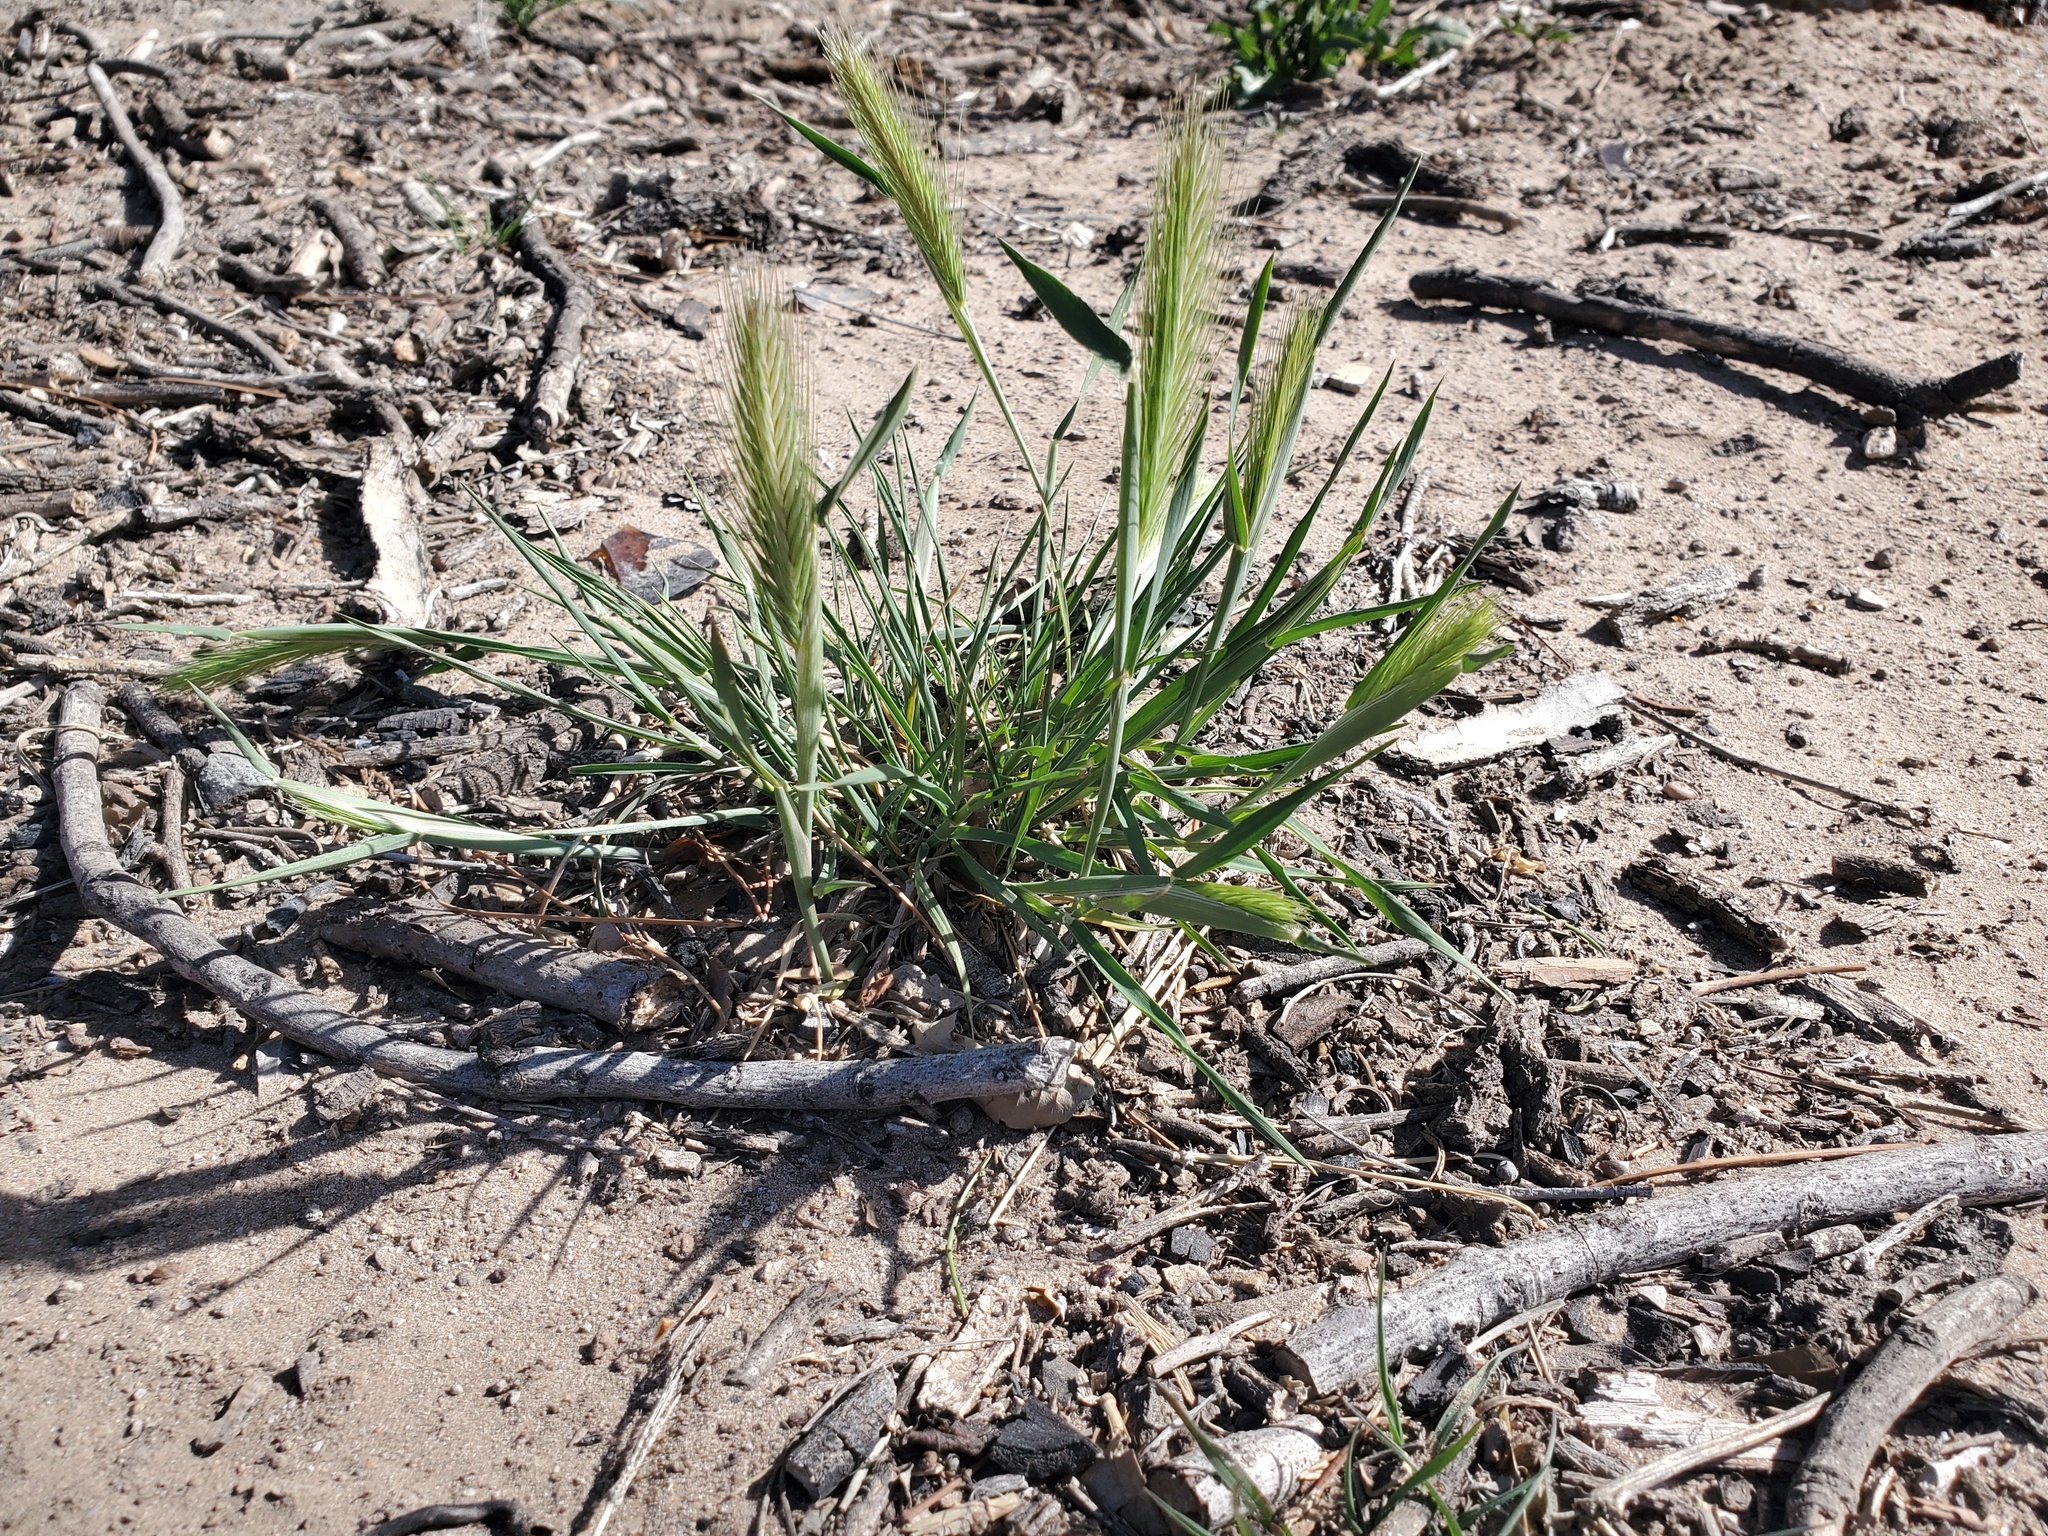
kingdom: Plantae
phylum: Tracheophyta
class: Liliopsida
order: Poales
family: Poaceae
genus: Hordeum
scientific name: Hordeum murinum
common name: Wall barley
